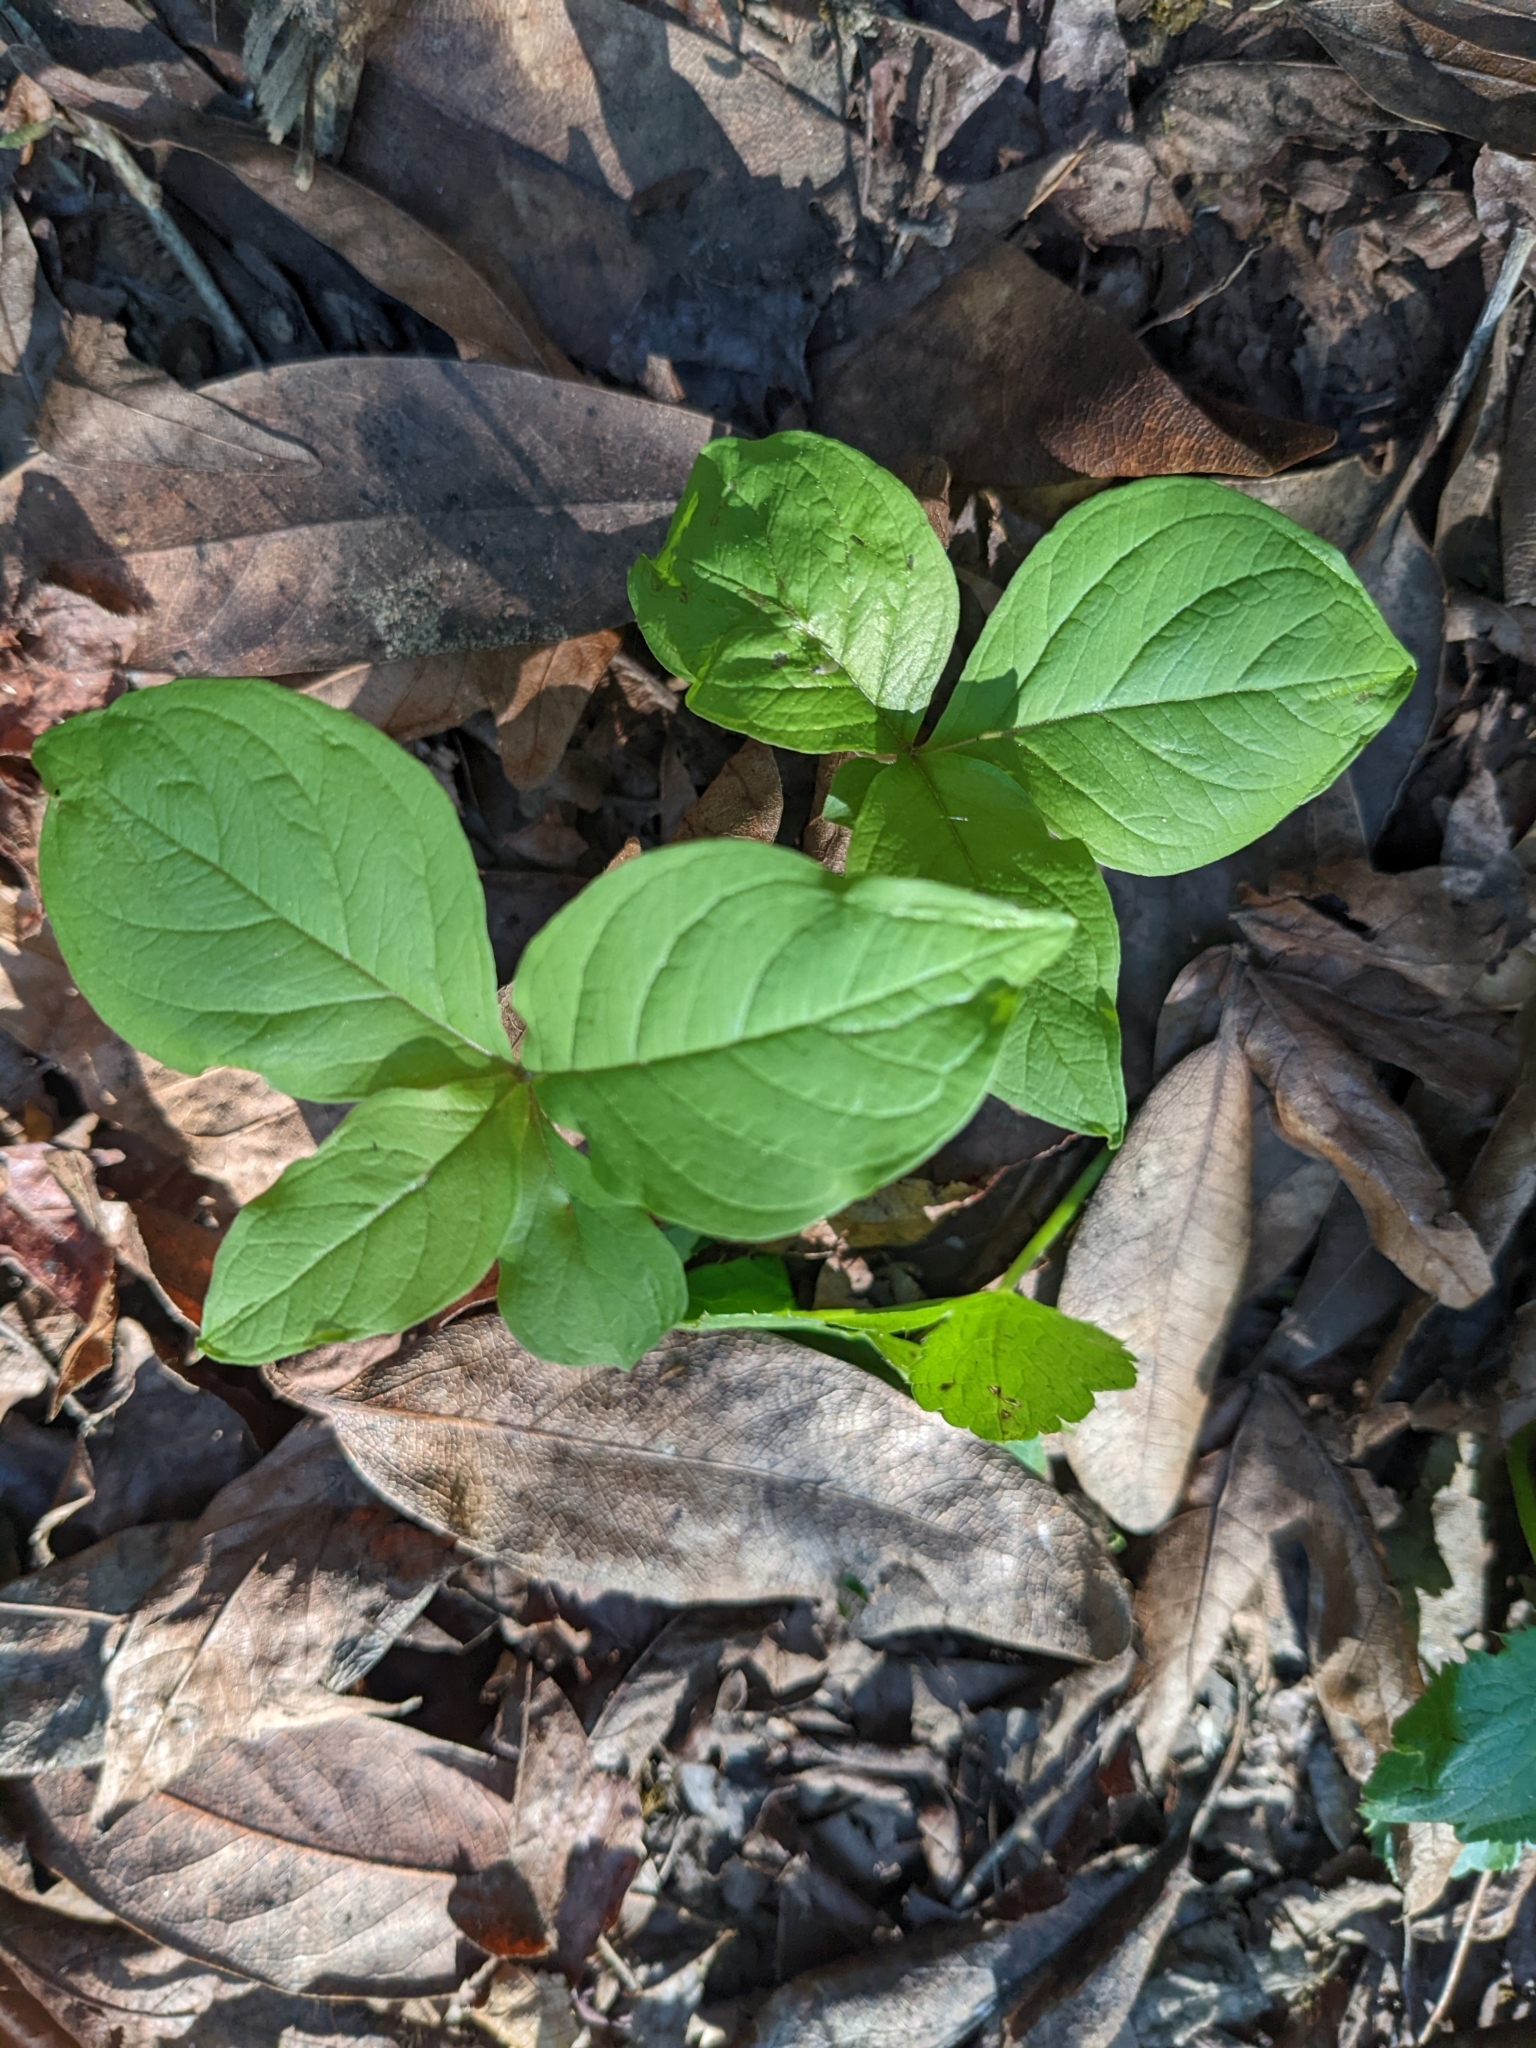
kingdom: Plantae
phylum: Tracheophyta
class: Magnoliopsida
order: Ericales
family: Primulaceae
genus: Lysimachia
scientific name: Lysimachia latifolia
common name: Pacific starflower
